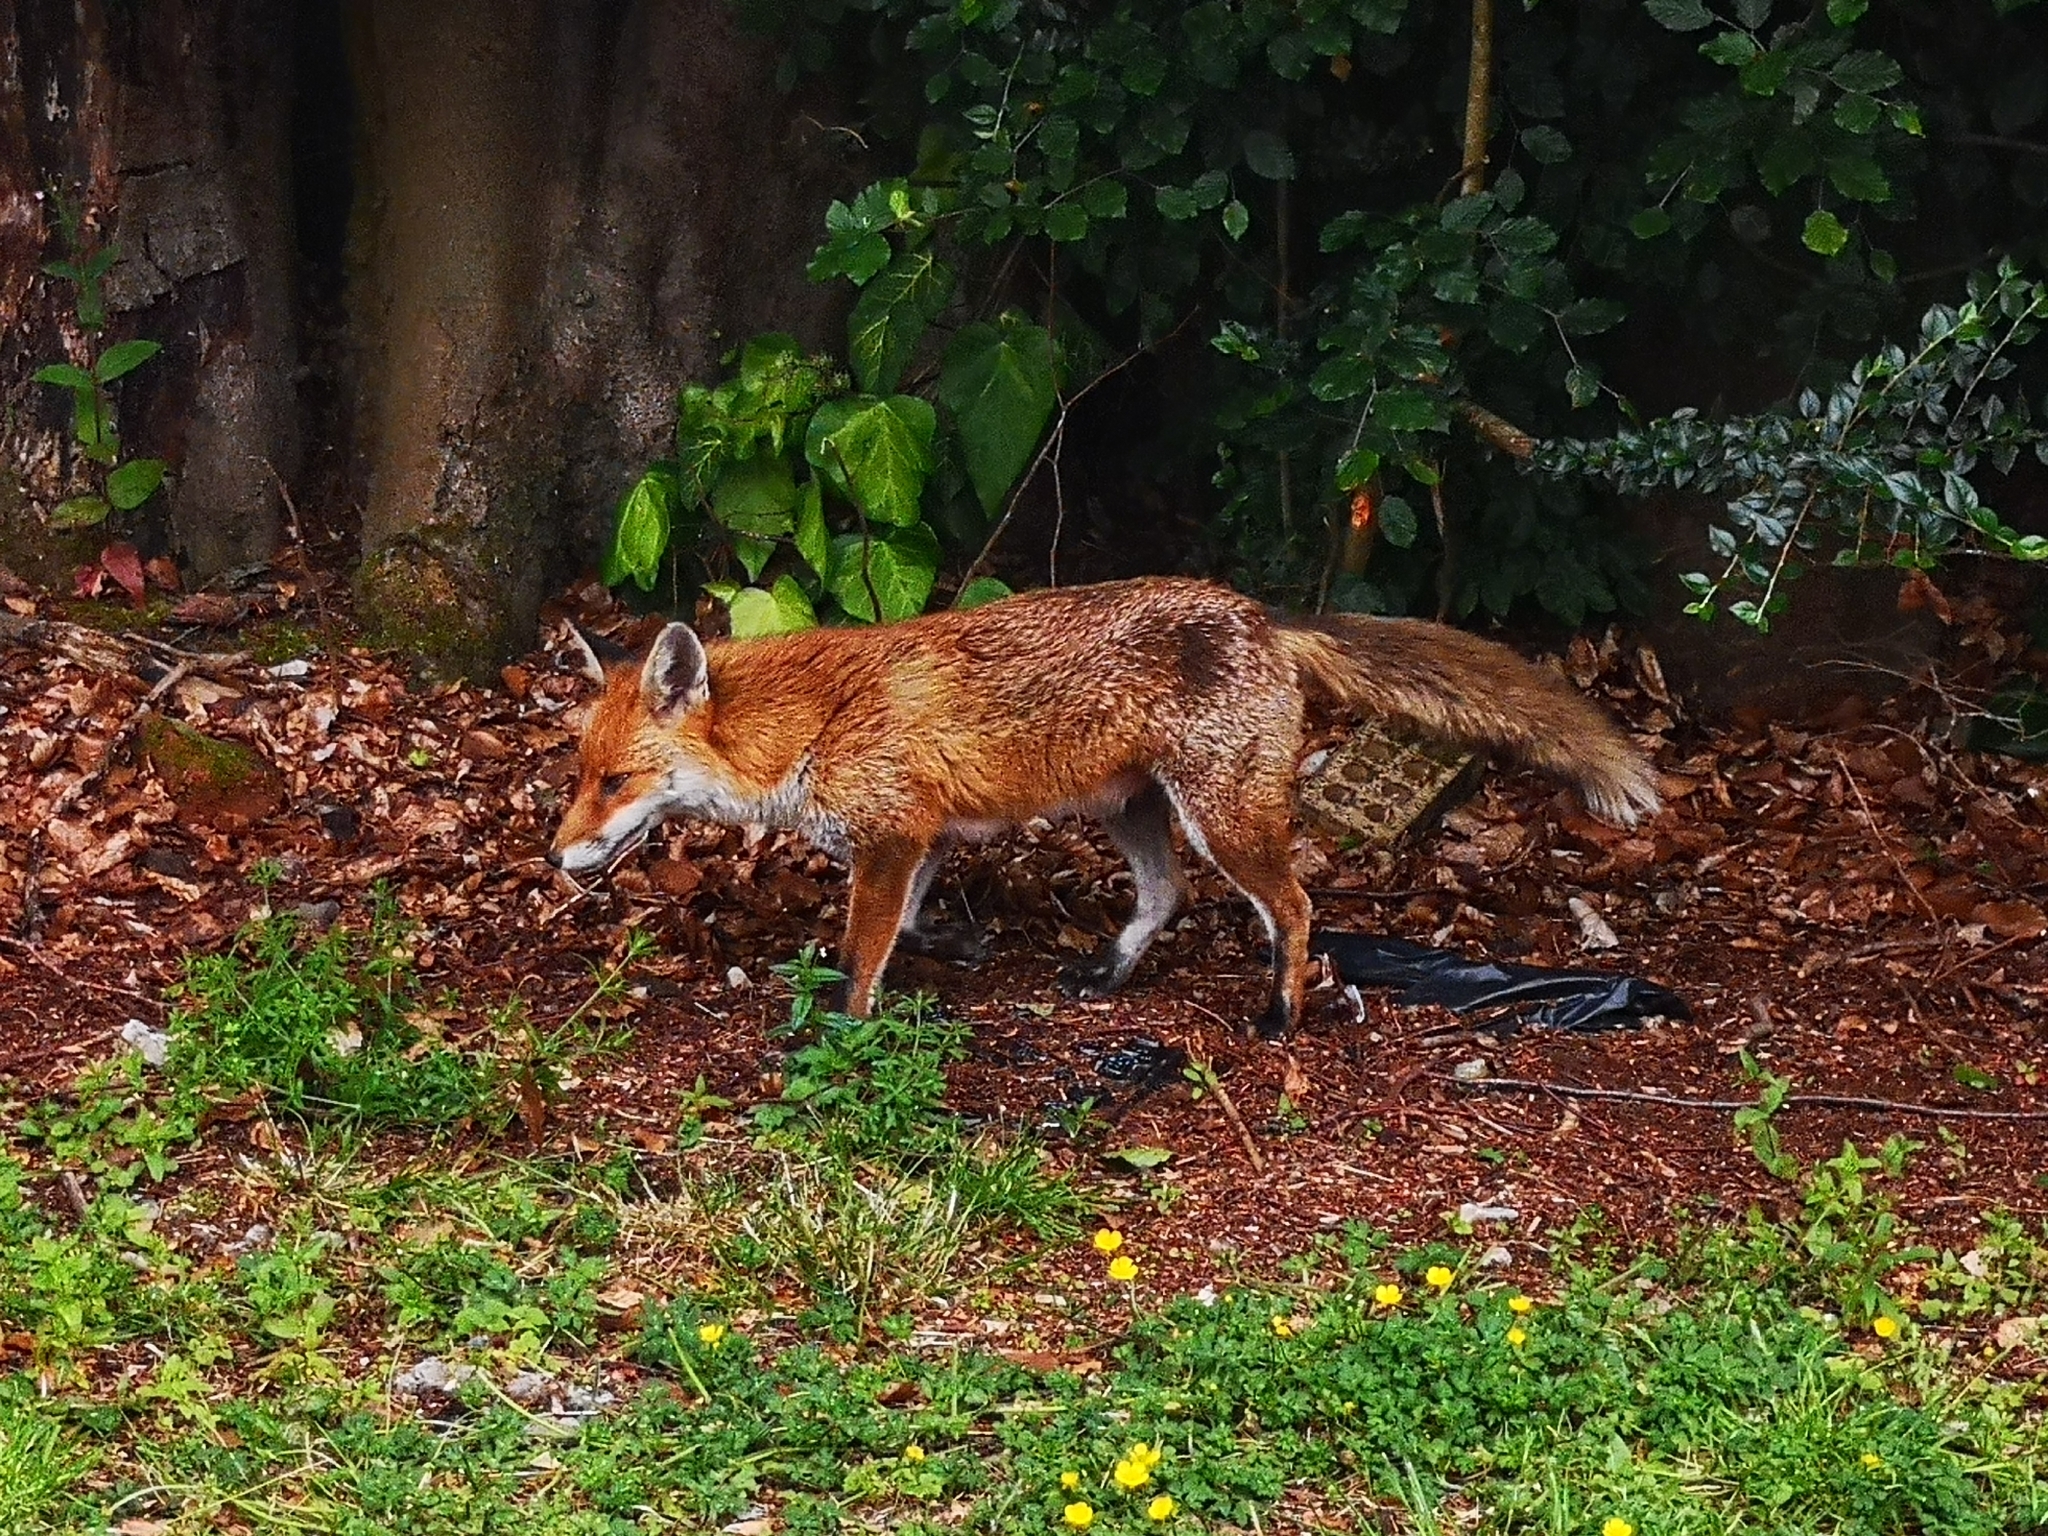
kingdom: Animalia
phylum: Chordata
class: Mammalia
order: Carnivora
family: Canidae
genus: Vulpes
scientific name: Vulpes vulpes
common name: Red fox
